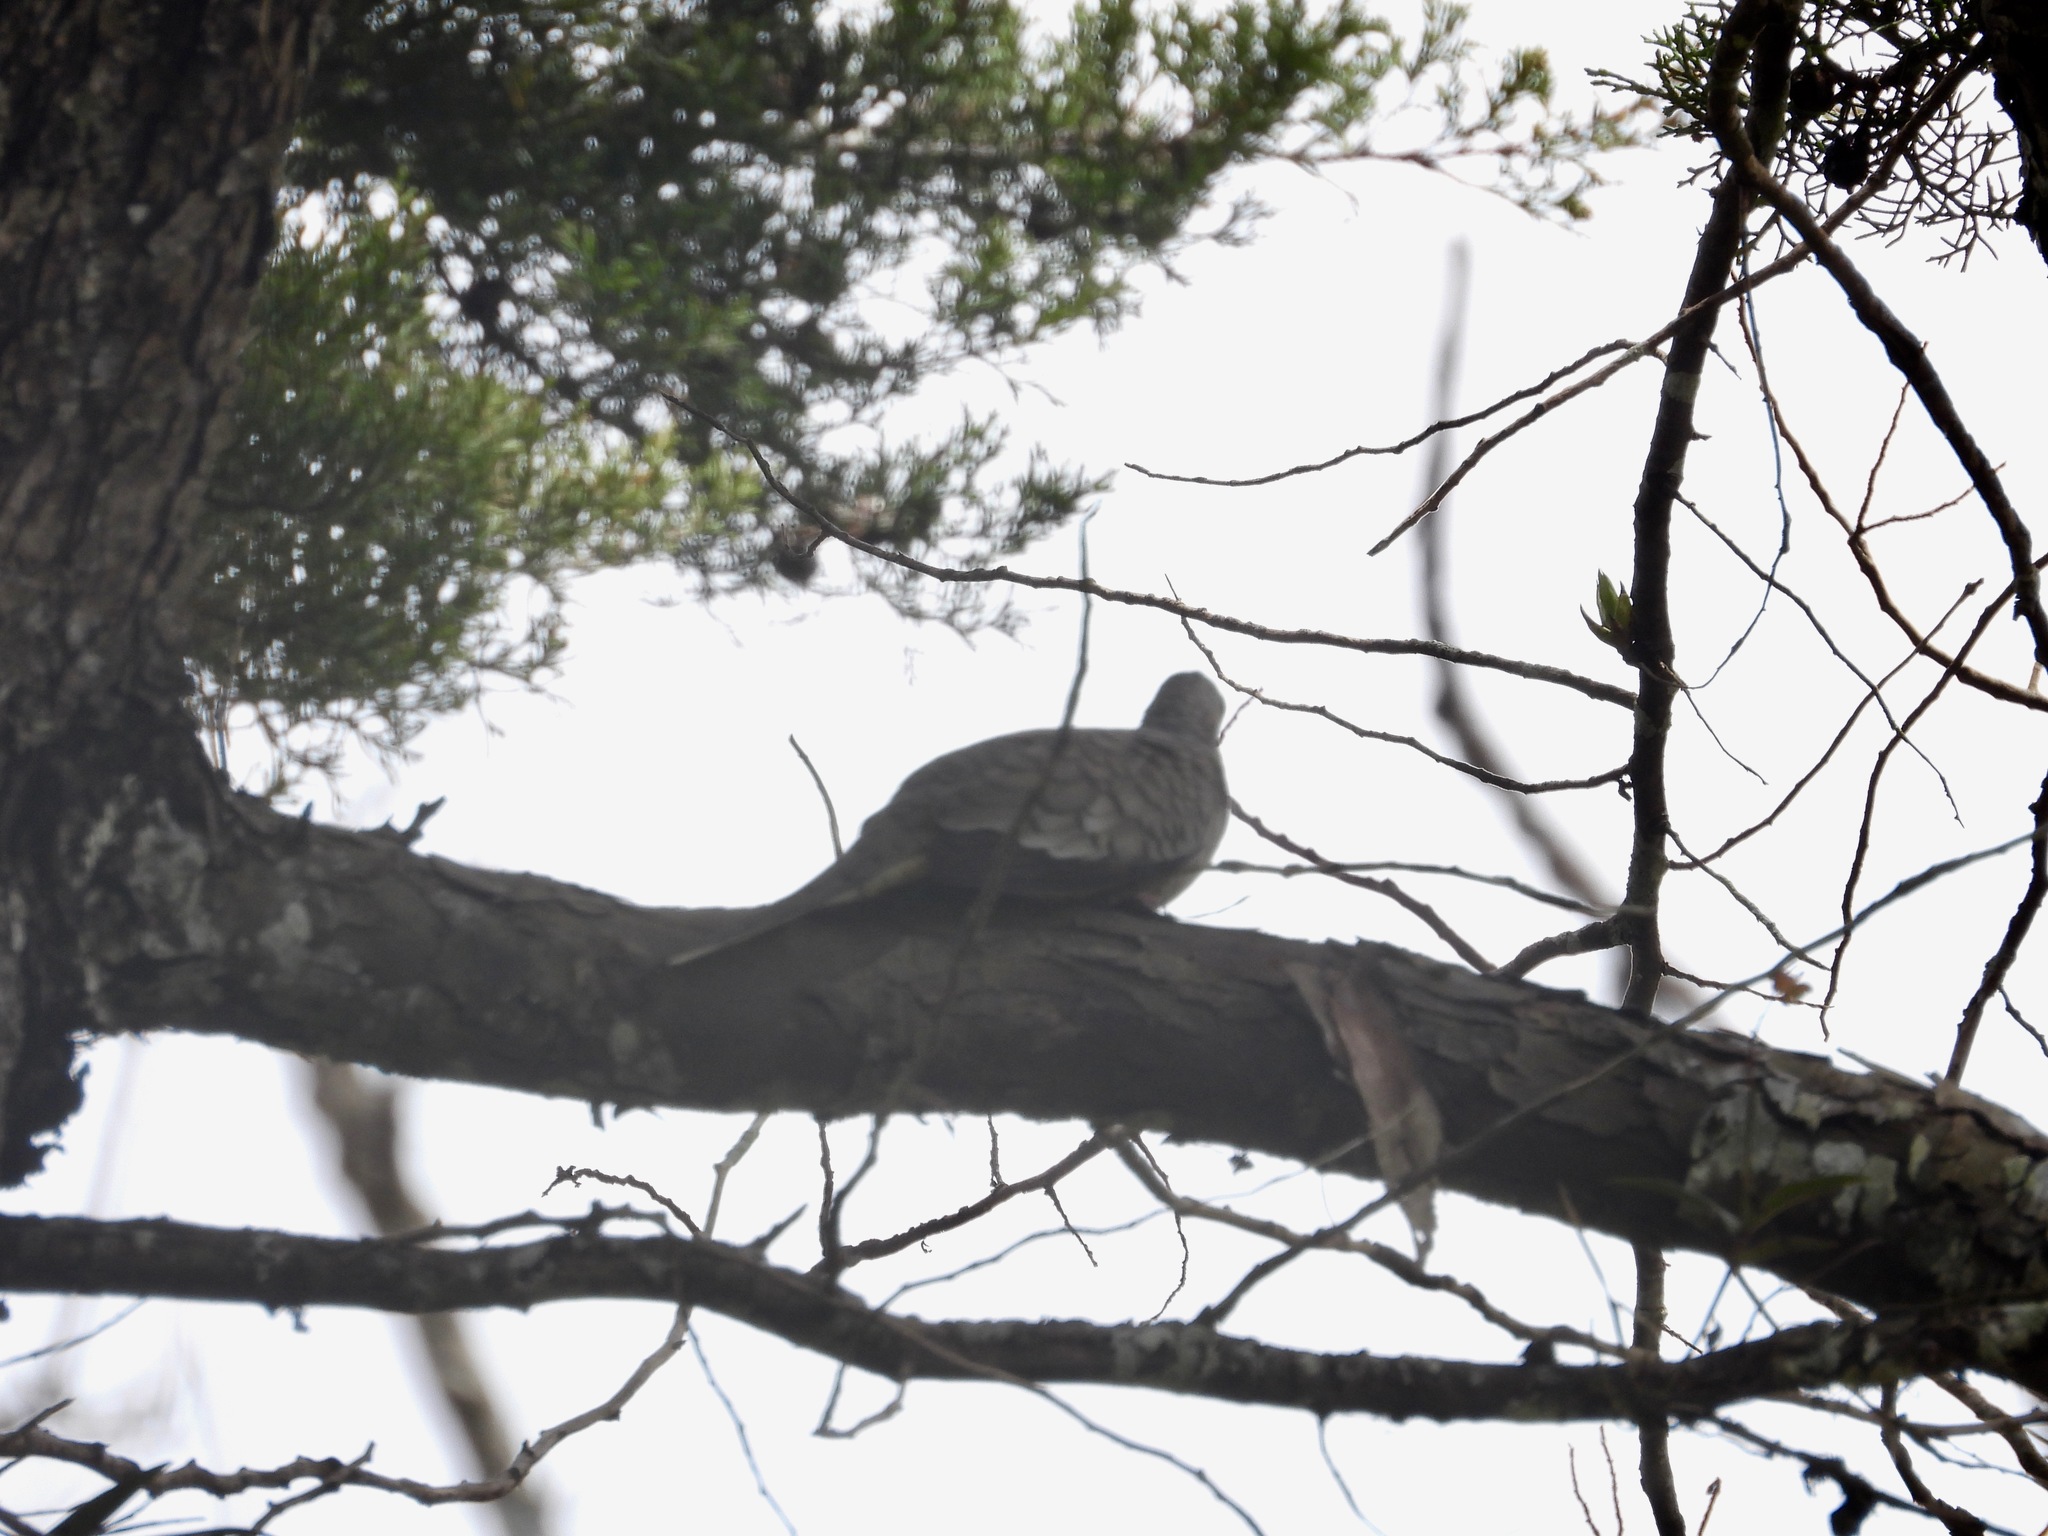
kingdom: Animalia
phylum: Chordata
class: Aves
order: Columbiformes
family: Columbidae
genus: Columbina
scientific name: Columbina inca
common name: Inca dove
